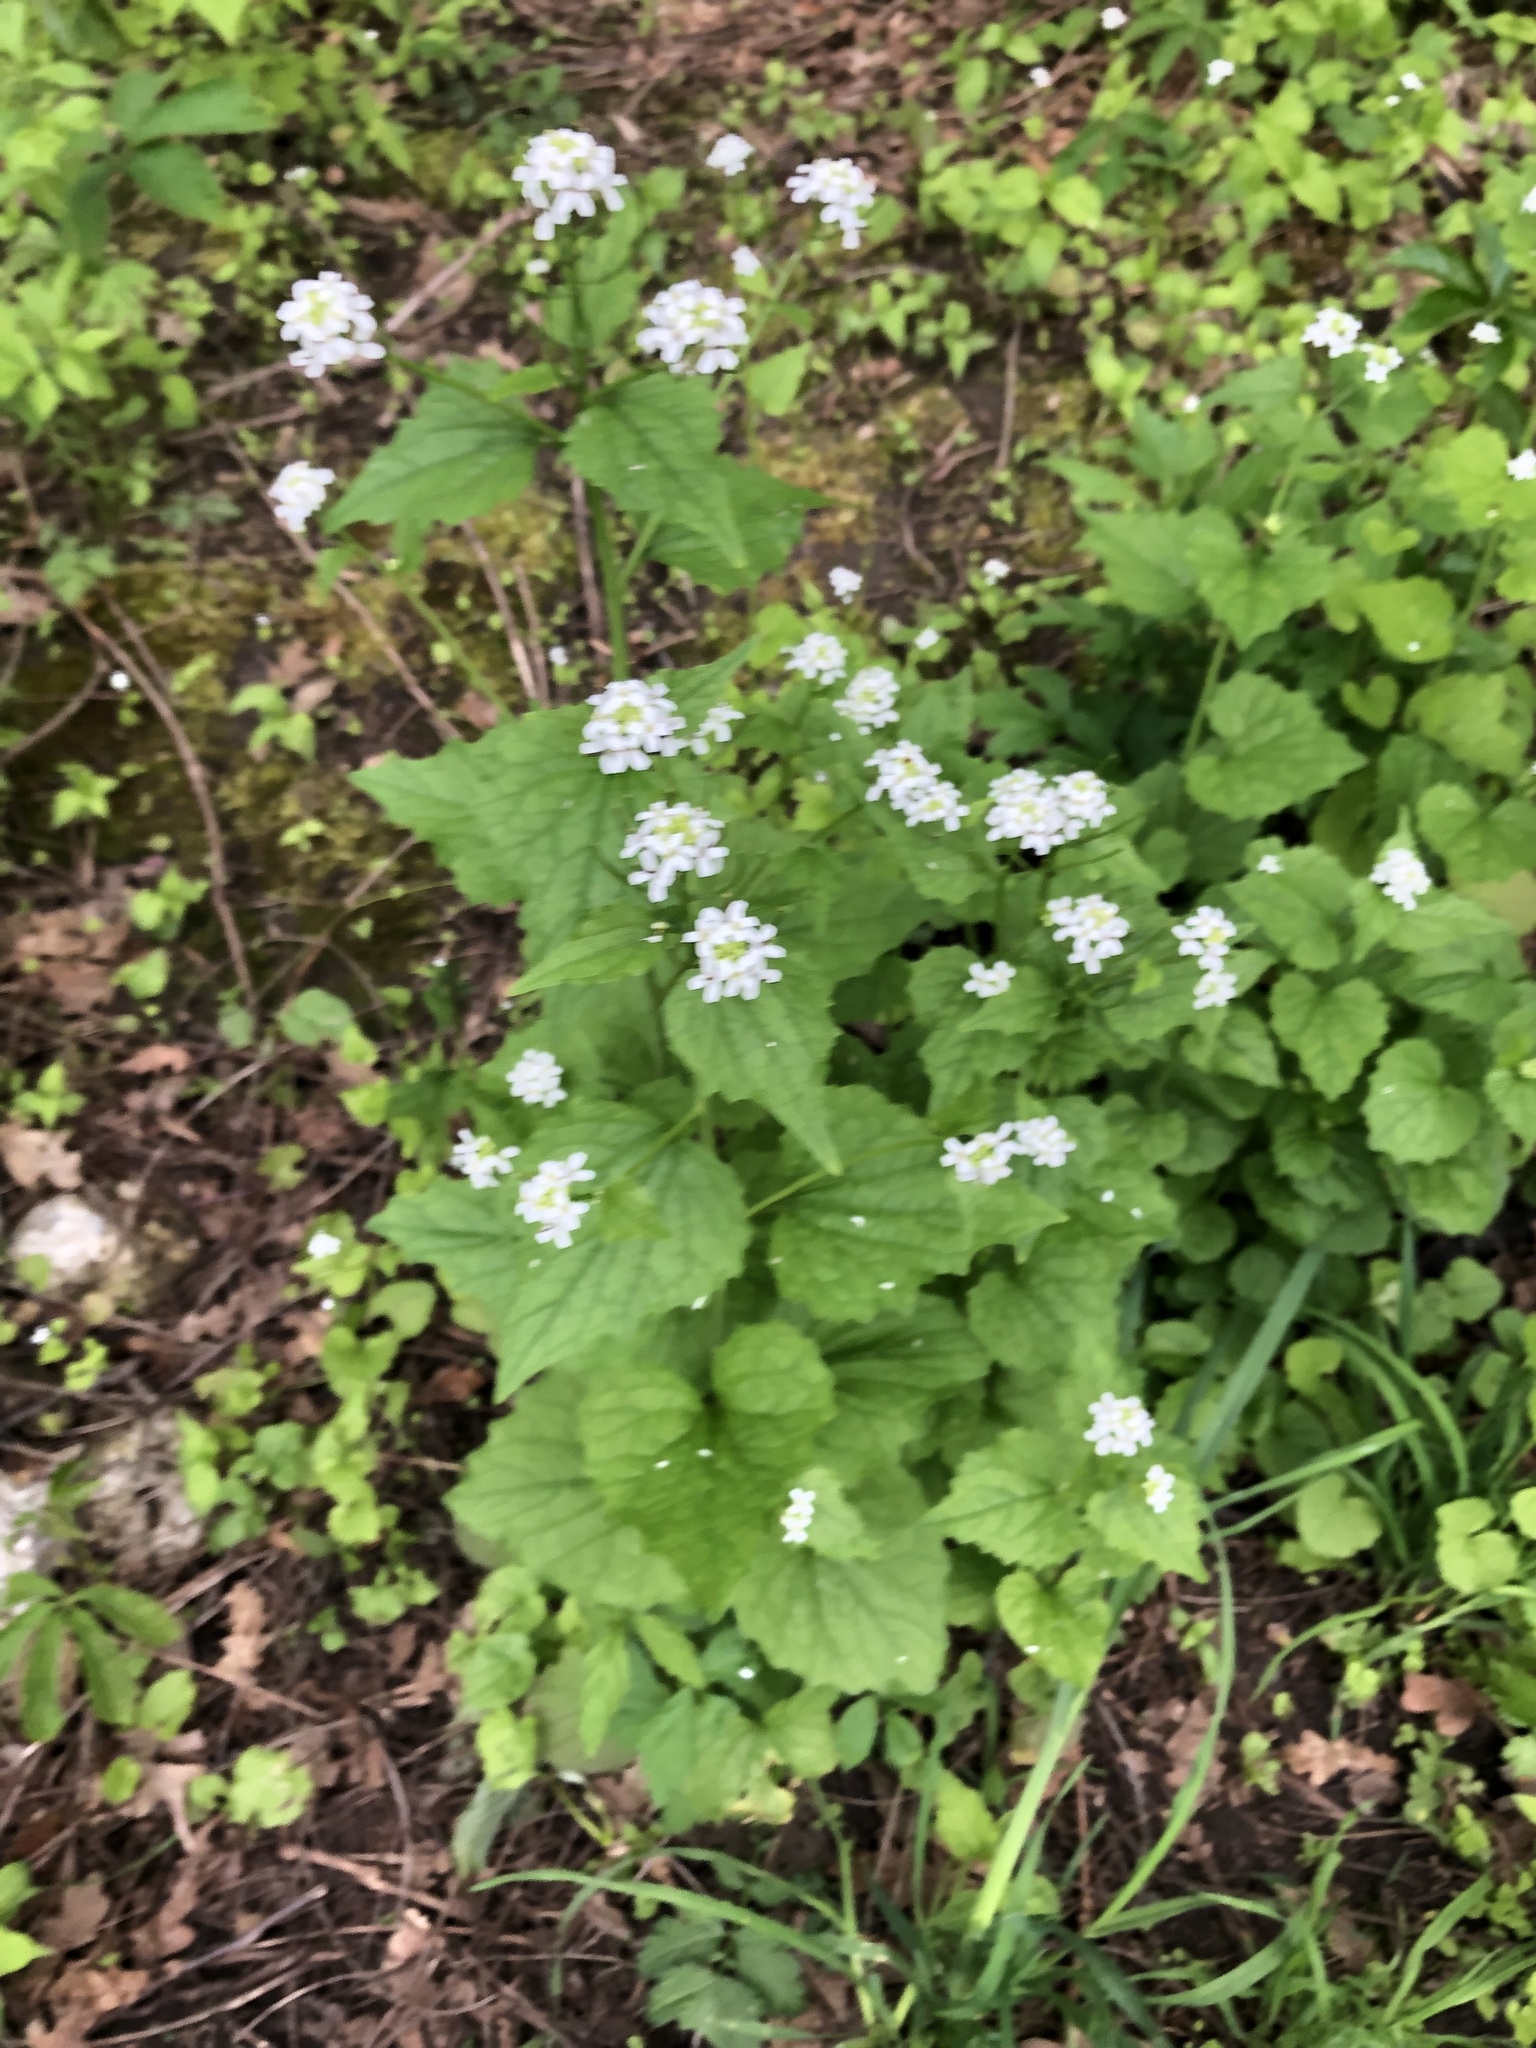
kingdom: Plantae
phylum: Tracheophyta
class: Magnoliopsida
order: Brassicales
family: Brassicaceae
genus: Alliaria
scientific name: Alliaria petiolata
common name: Garlic mustard
